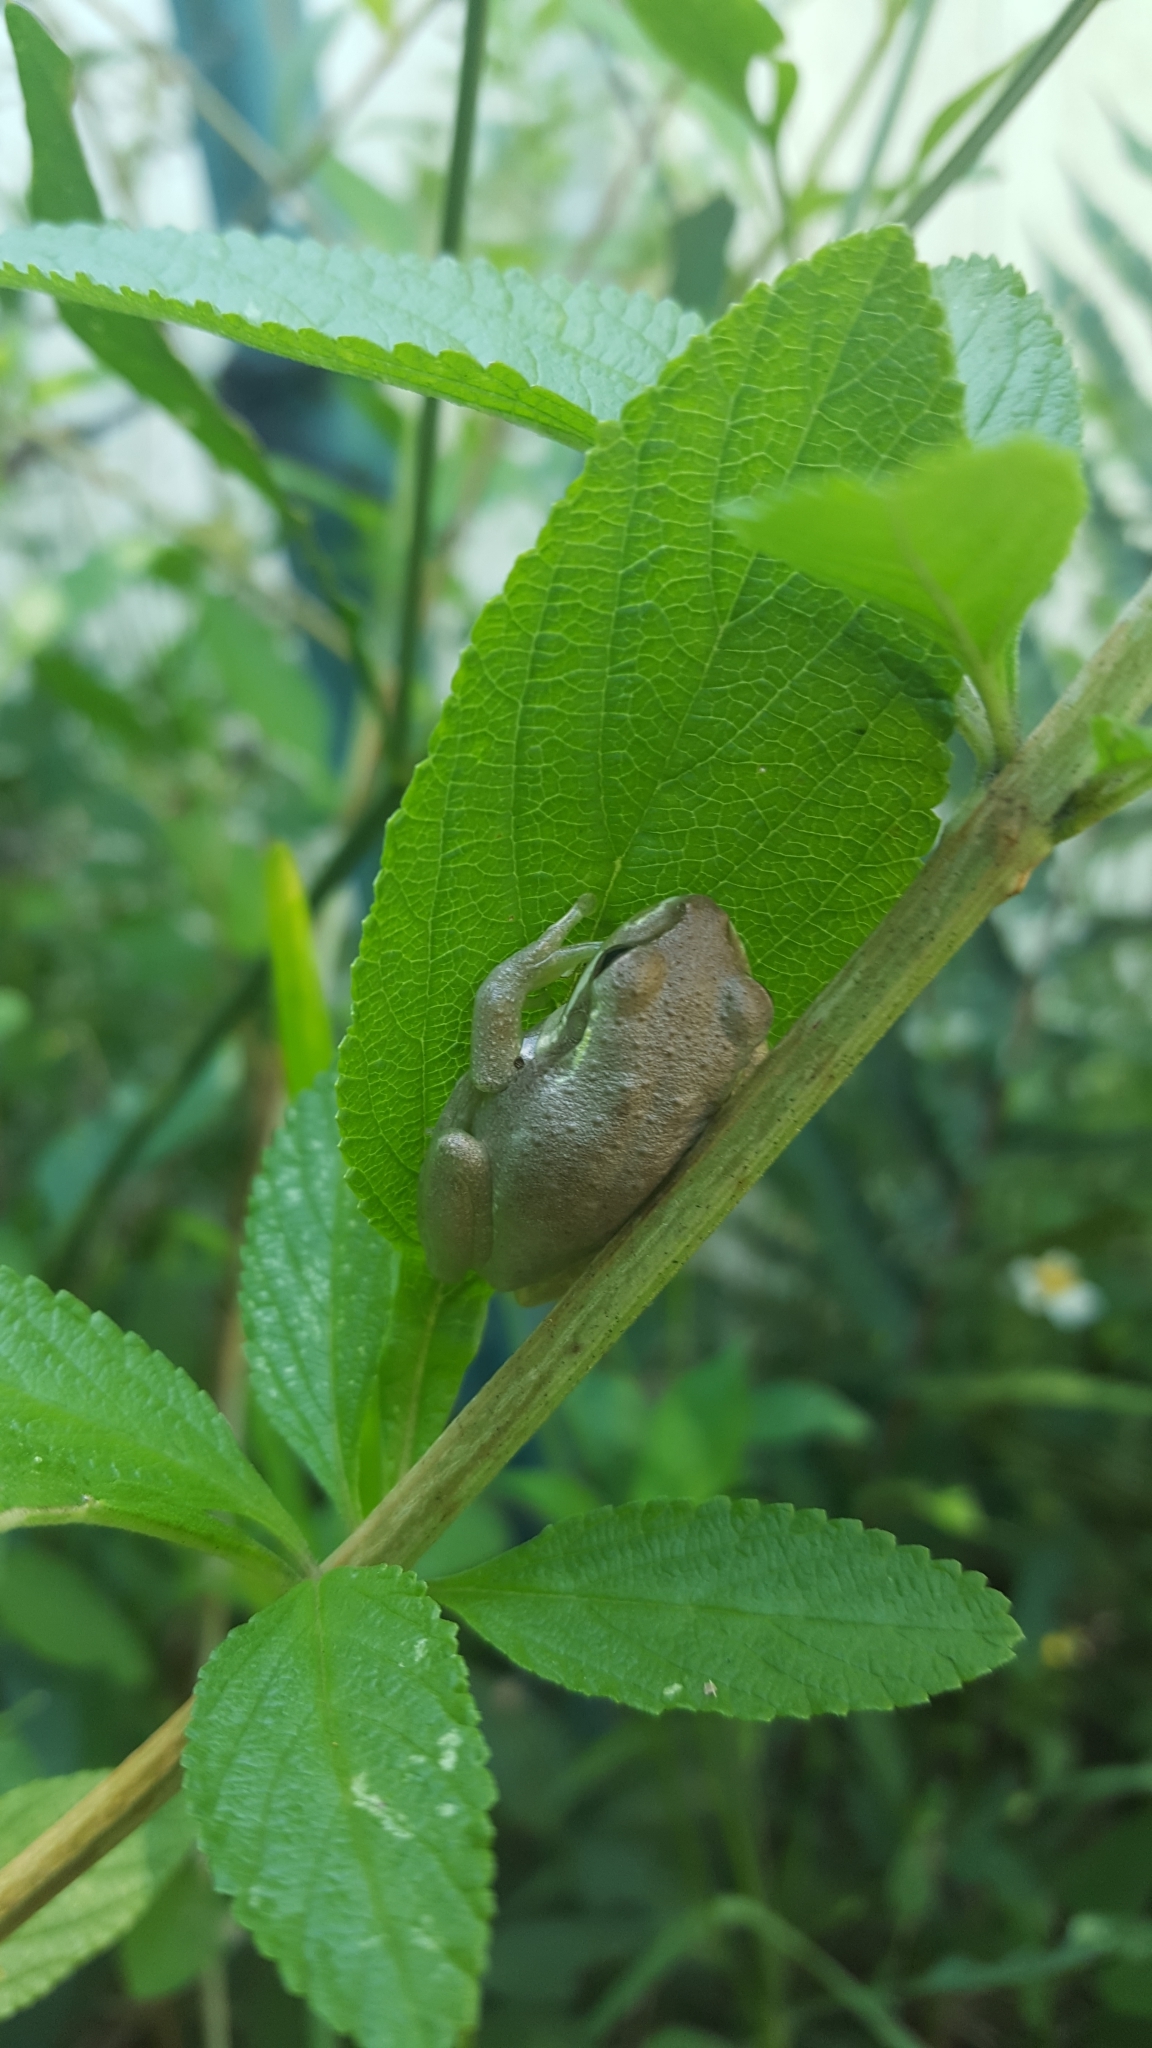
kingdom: Animalia
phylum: Chordata
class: Amphibia
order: Anura
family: Hylidae
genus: Osteopilus
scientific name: Osteopilus septentrionalis
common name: Cuban treefrog
